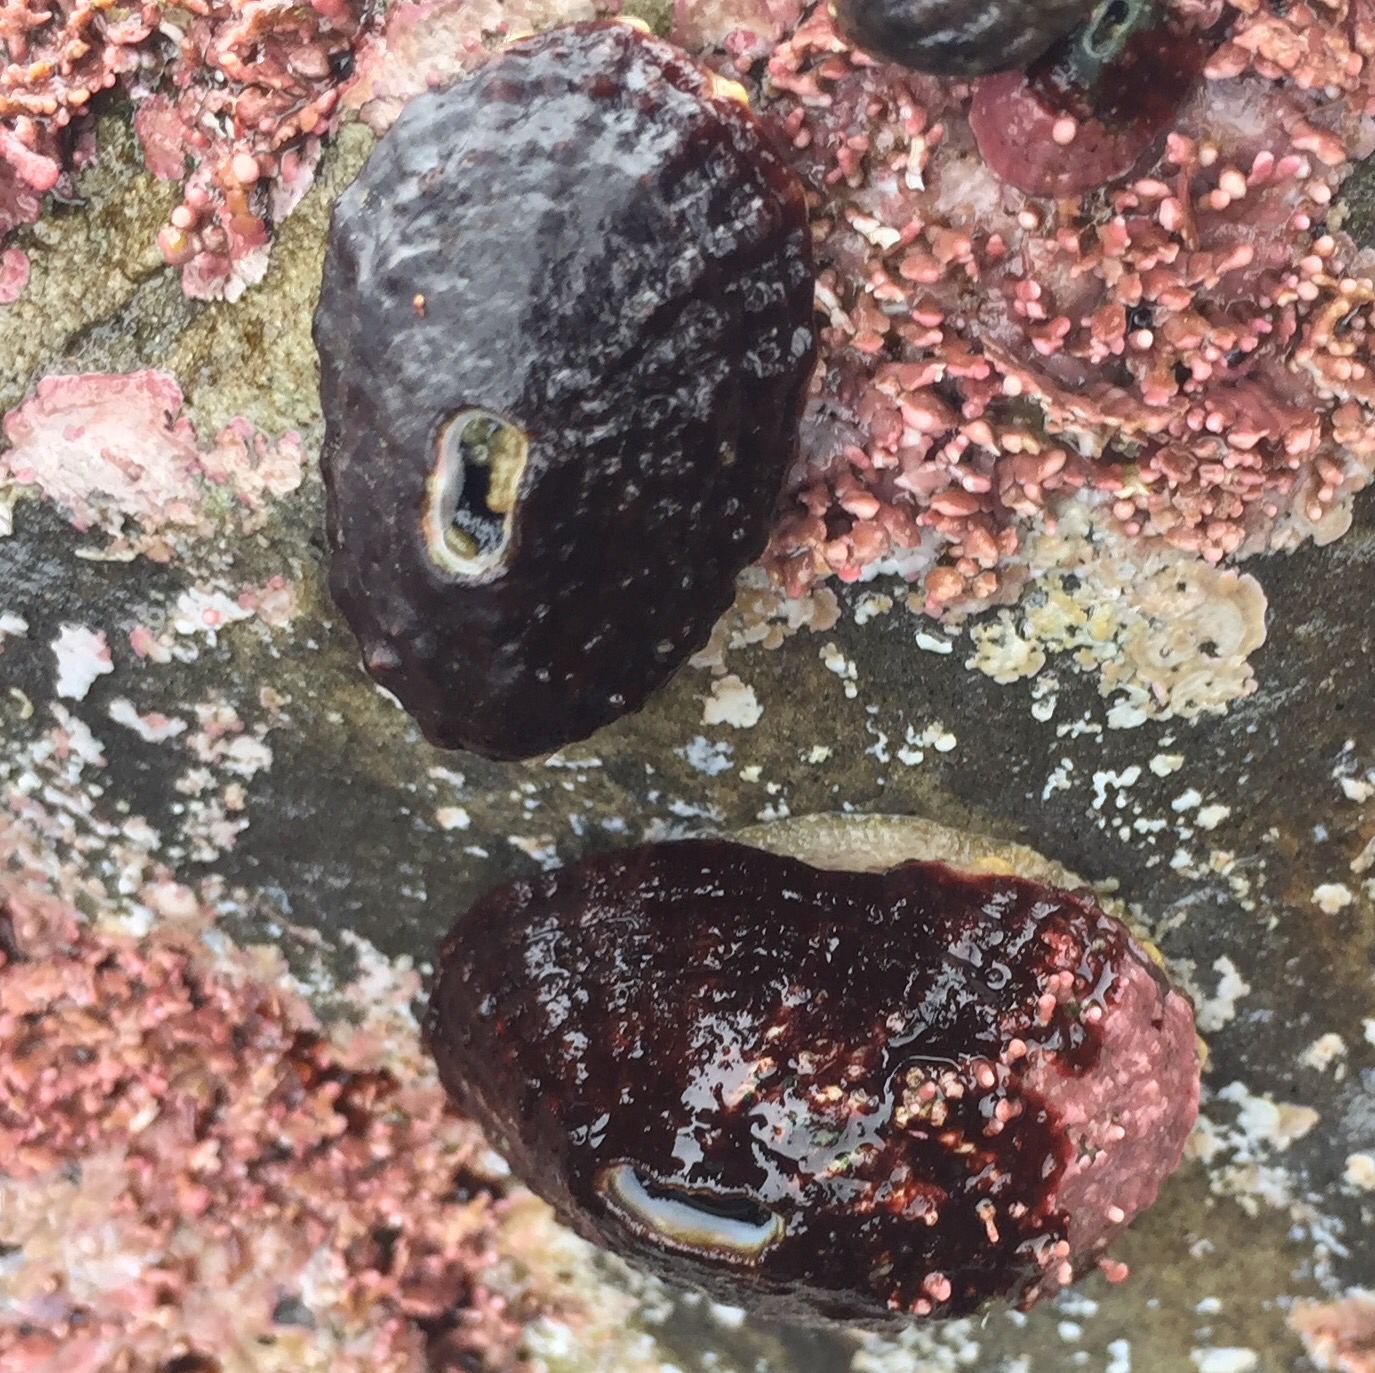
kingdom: Animalia
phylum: Mollusca
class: Gastropoda
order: Lepetellida
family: Fissurellidae
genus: Fissurella
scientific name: Fissurella volcano
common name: Volcano keyhole limpet
